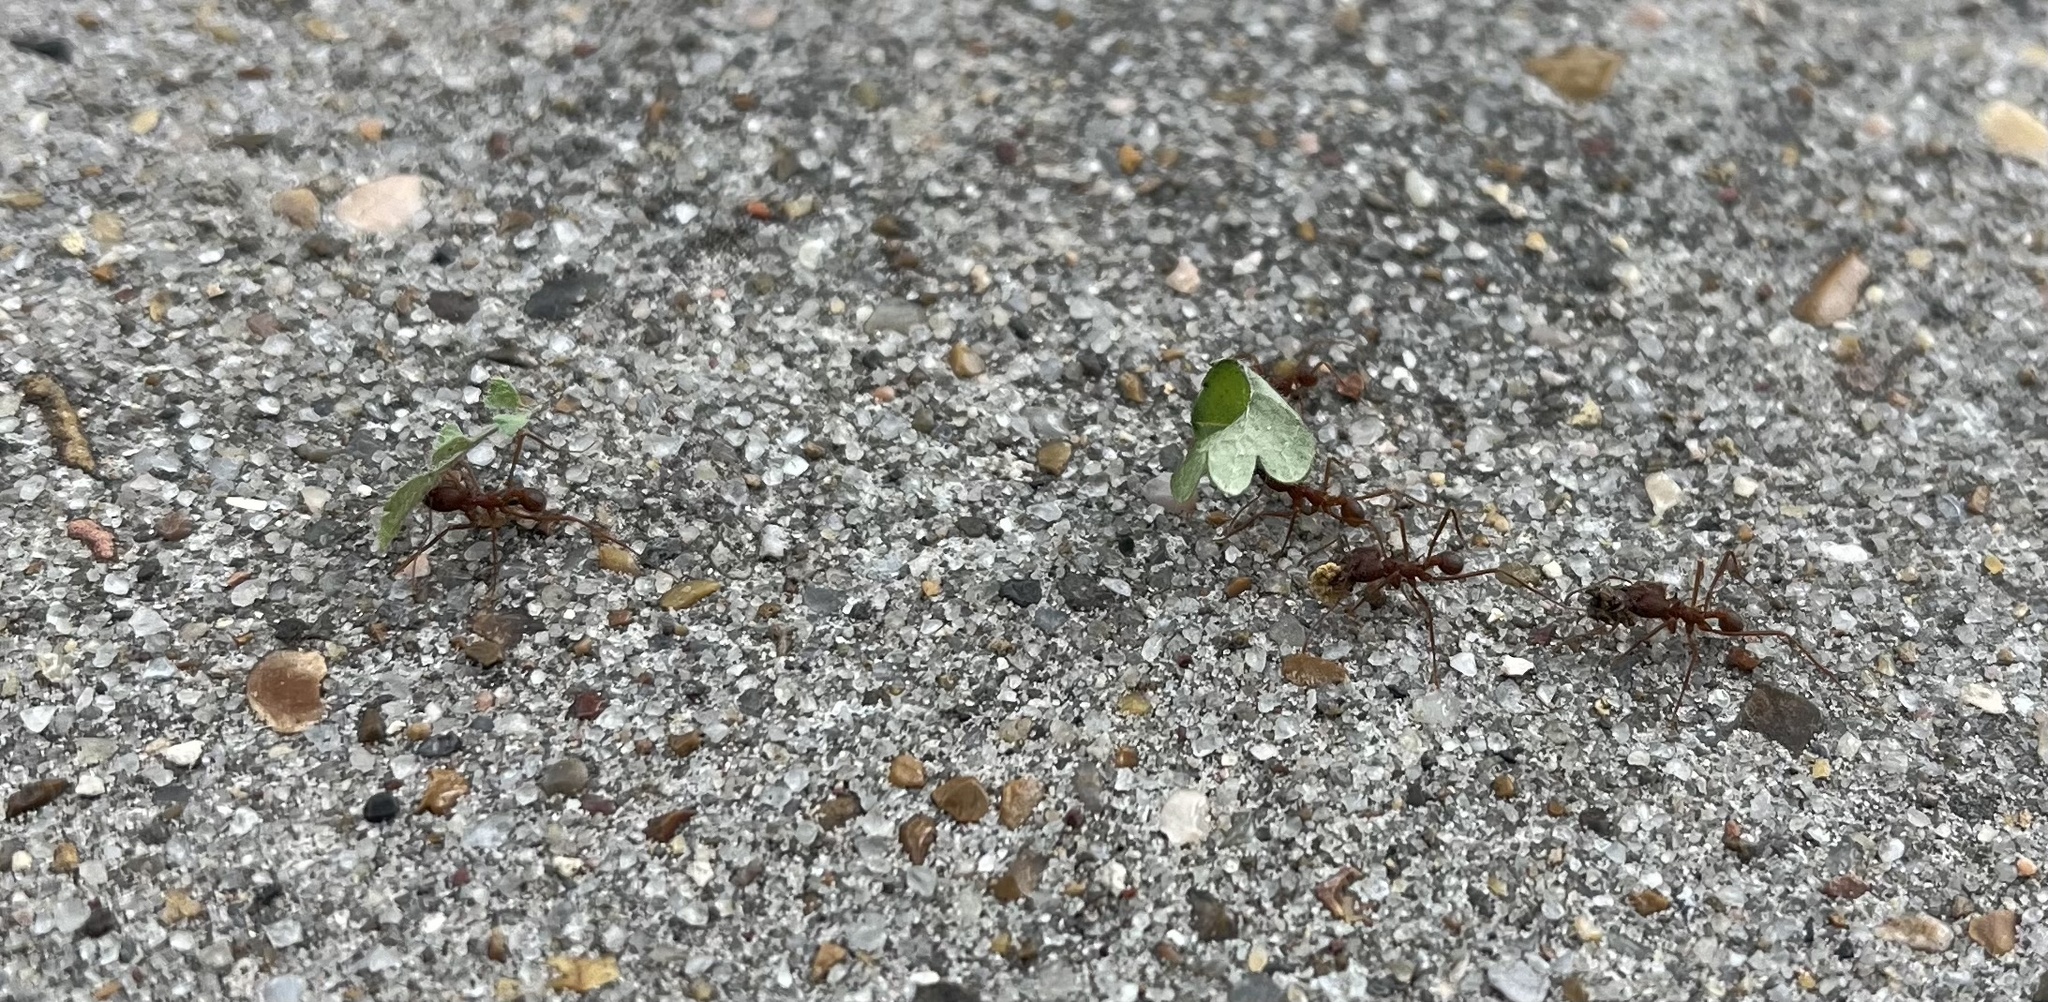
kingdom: Animalia
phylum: Arthropoda
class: Insecta
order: Hymenoptera
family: Formicidae
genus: Atta
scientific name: Atta texana
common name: Texas leafcutting ant
